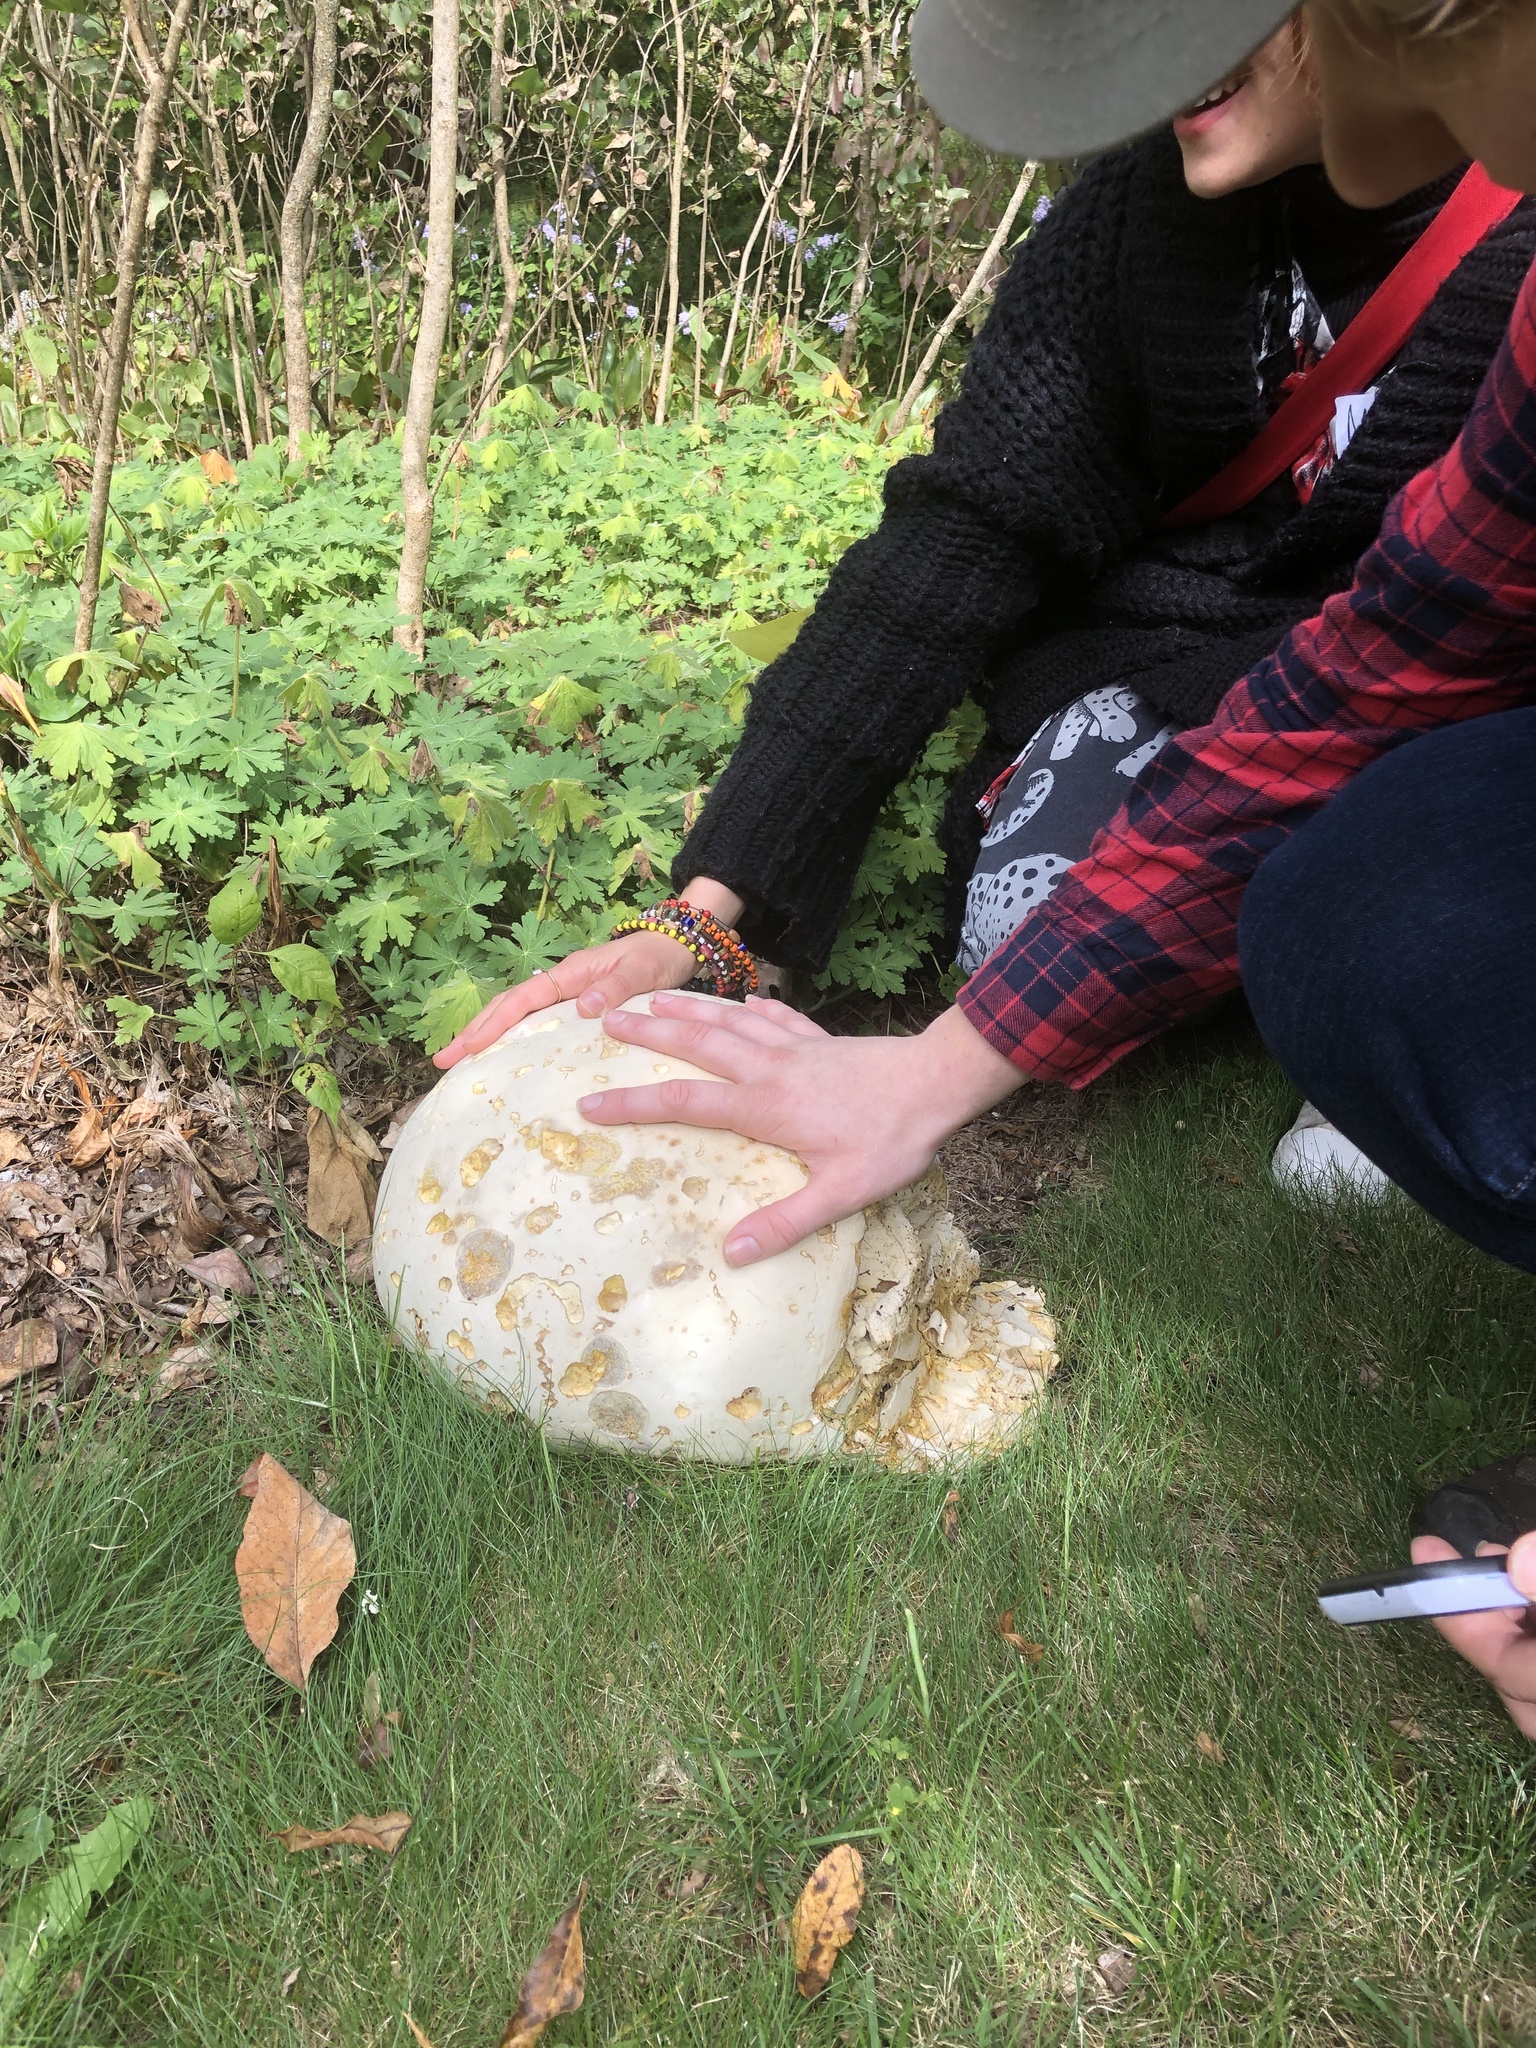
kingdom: Fungi
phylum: Basidiomycota
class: Agaricomycetes
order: Agaricales
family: Lycoperdaceae
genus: Calvatia
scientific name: Calvatia gigantea
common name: Giant puffball
